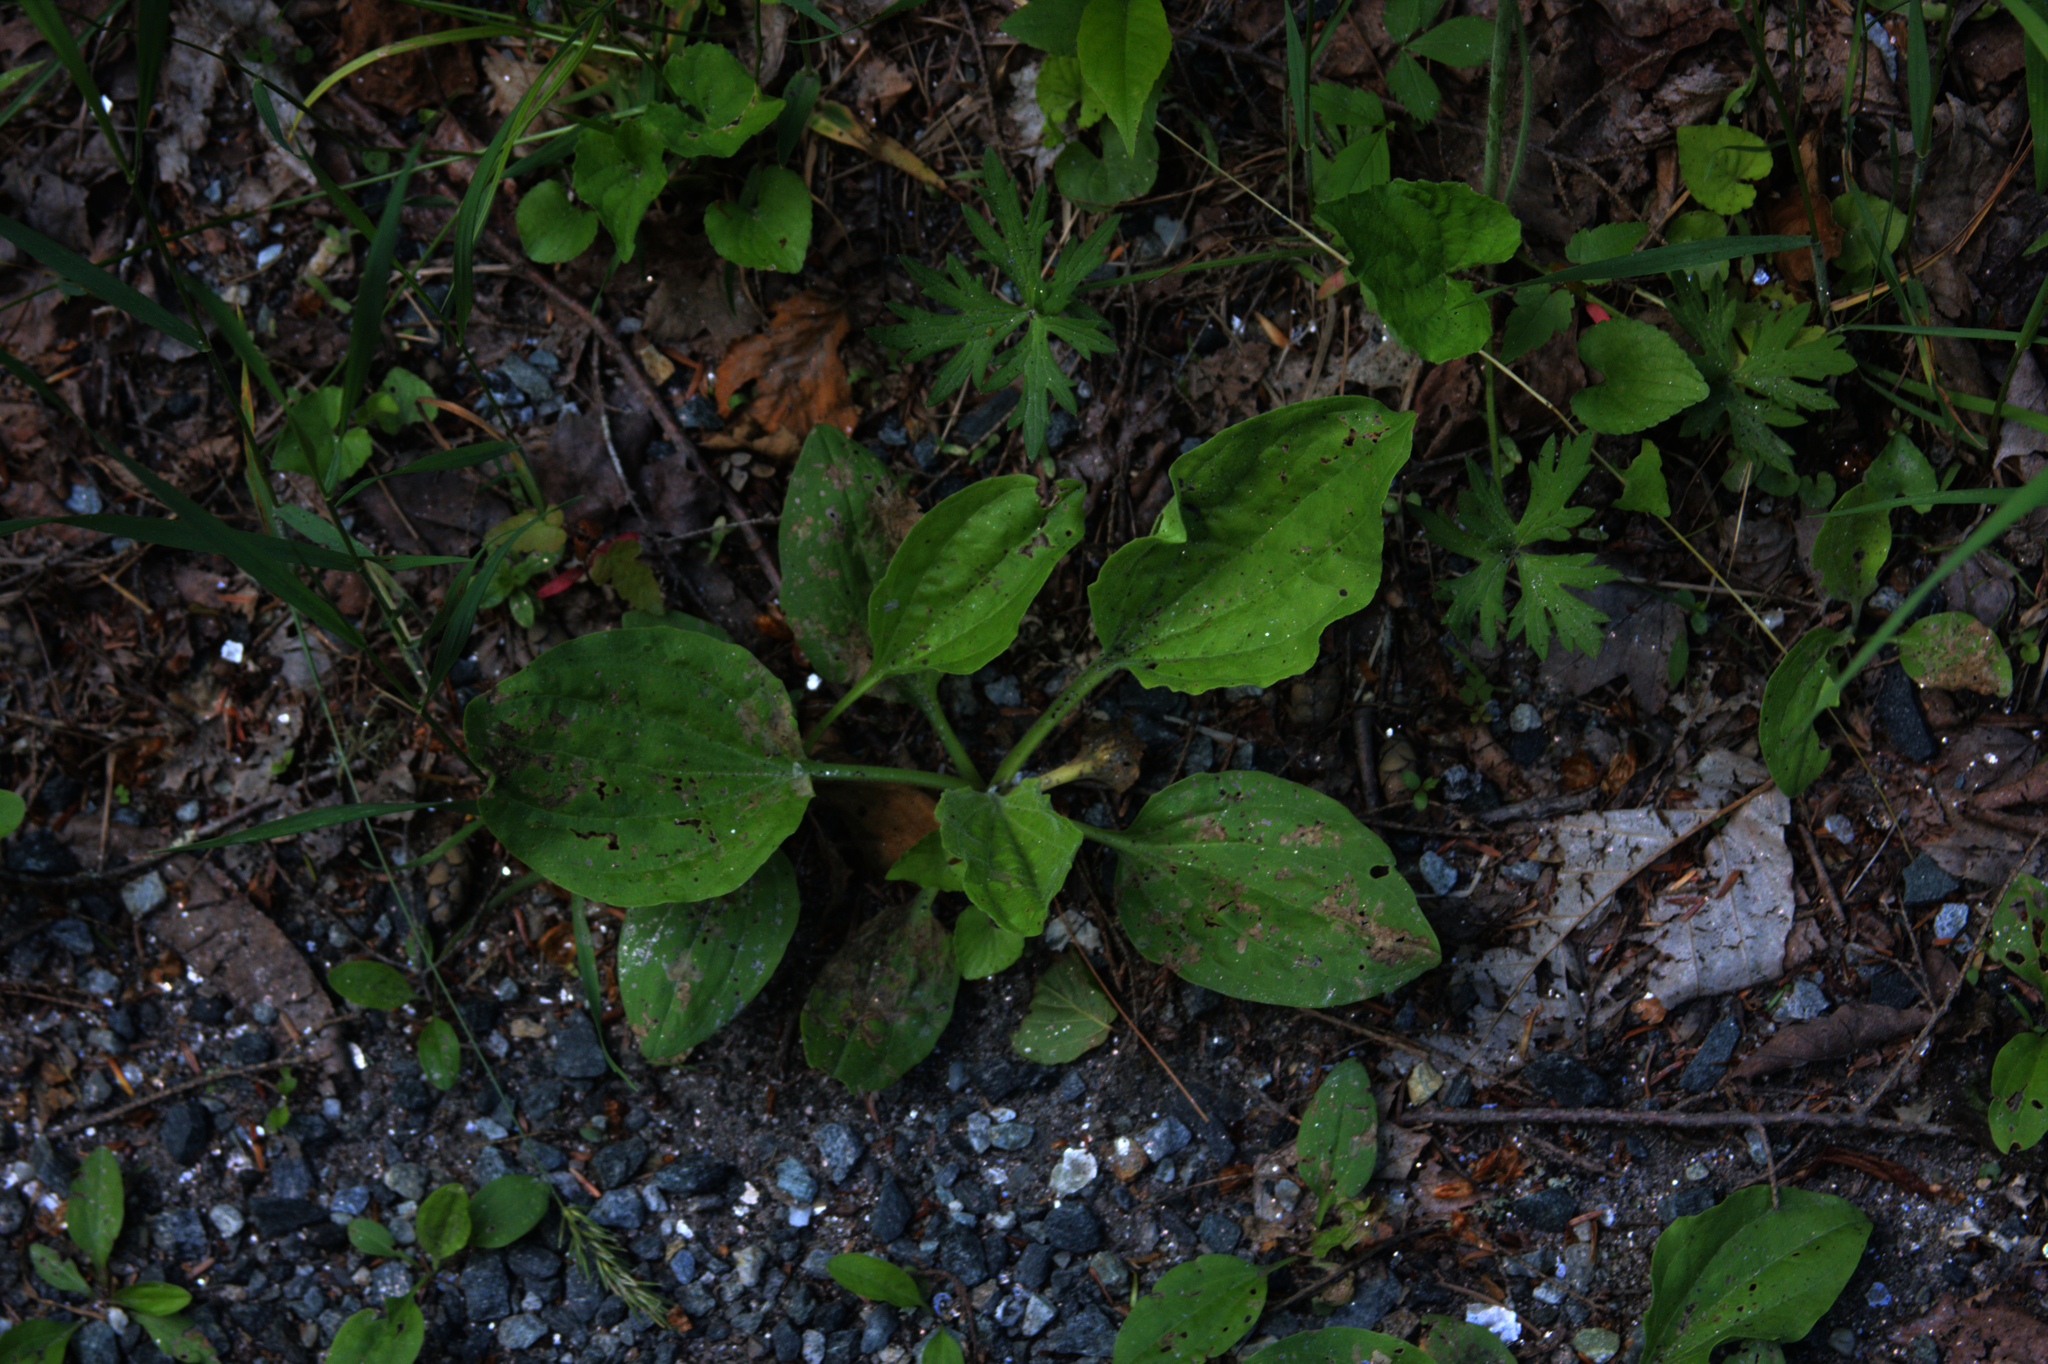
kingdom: Plantae
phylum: Tracheophyta
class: Magnoliopsida
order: Lamiales
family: Plantaginaceae
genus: Plantago
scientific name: Plantago major
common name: Common plantain
